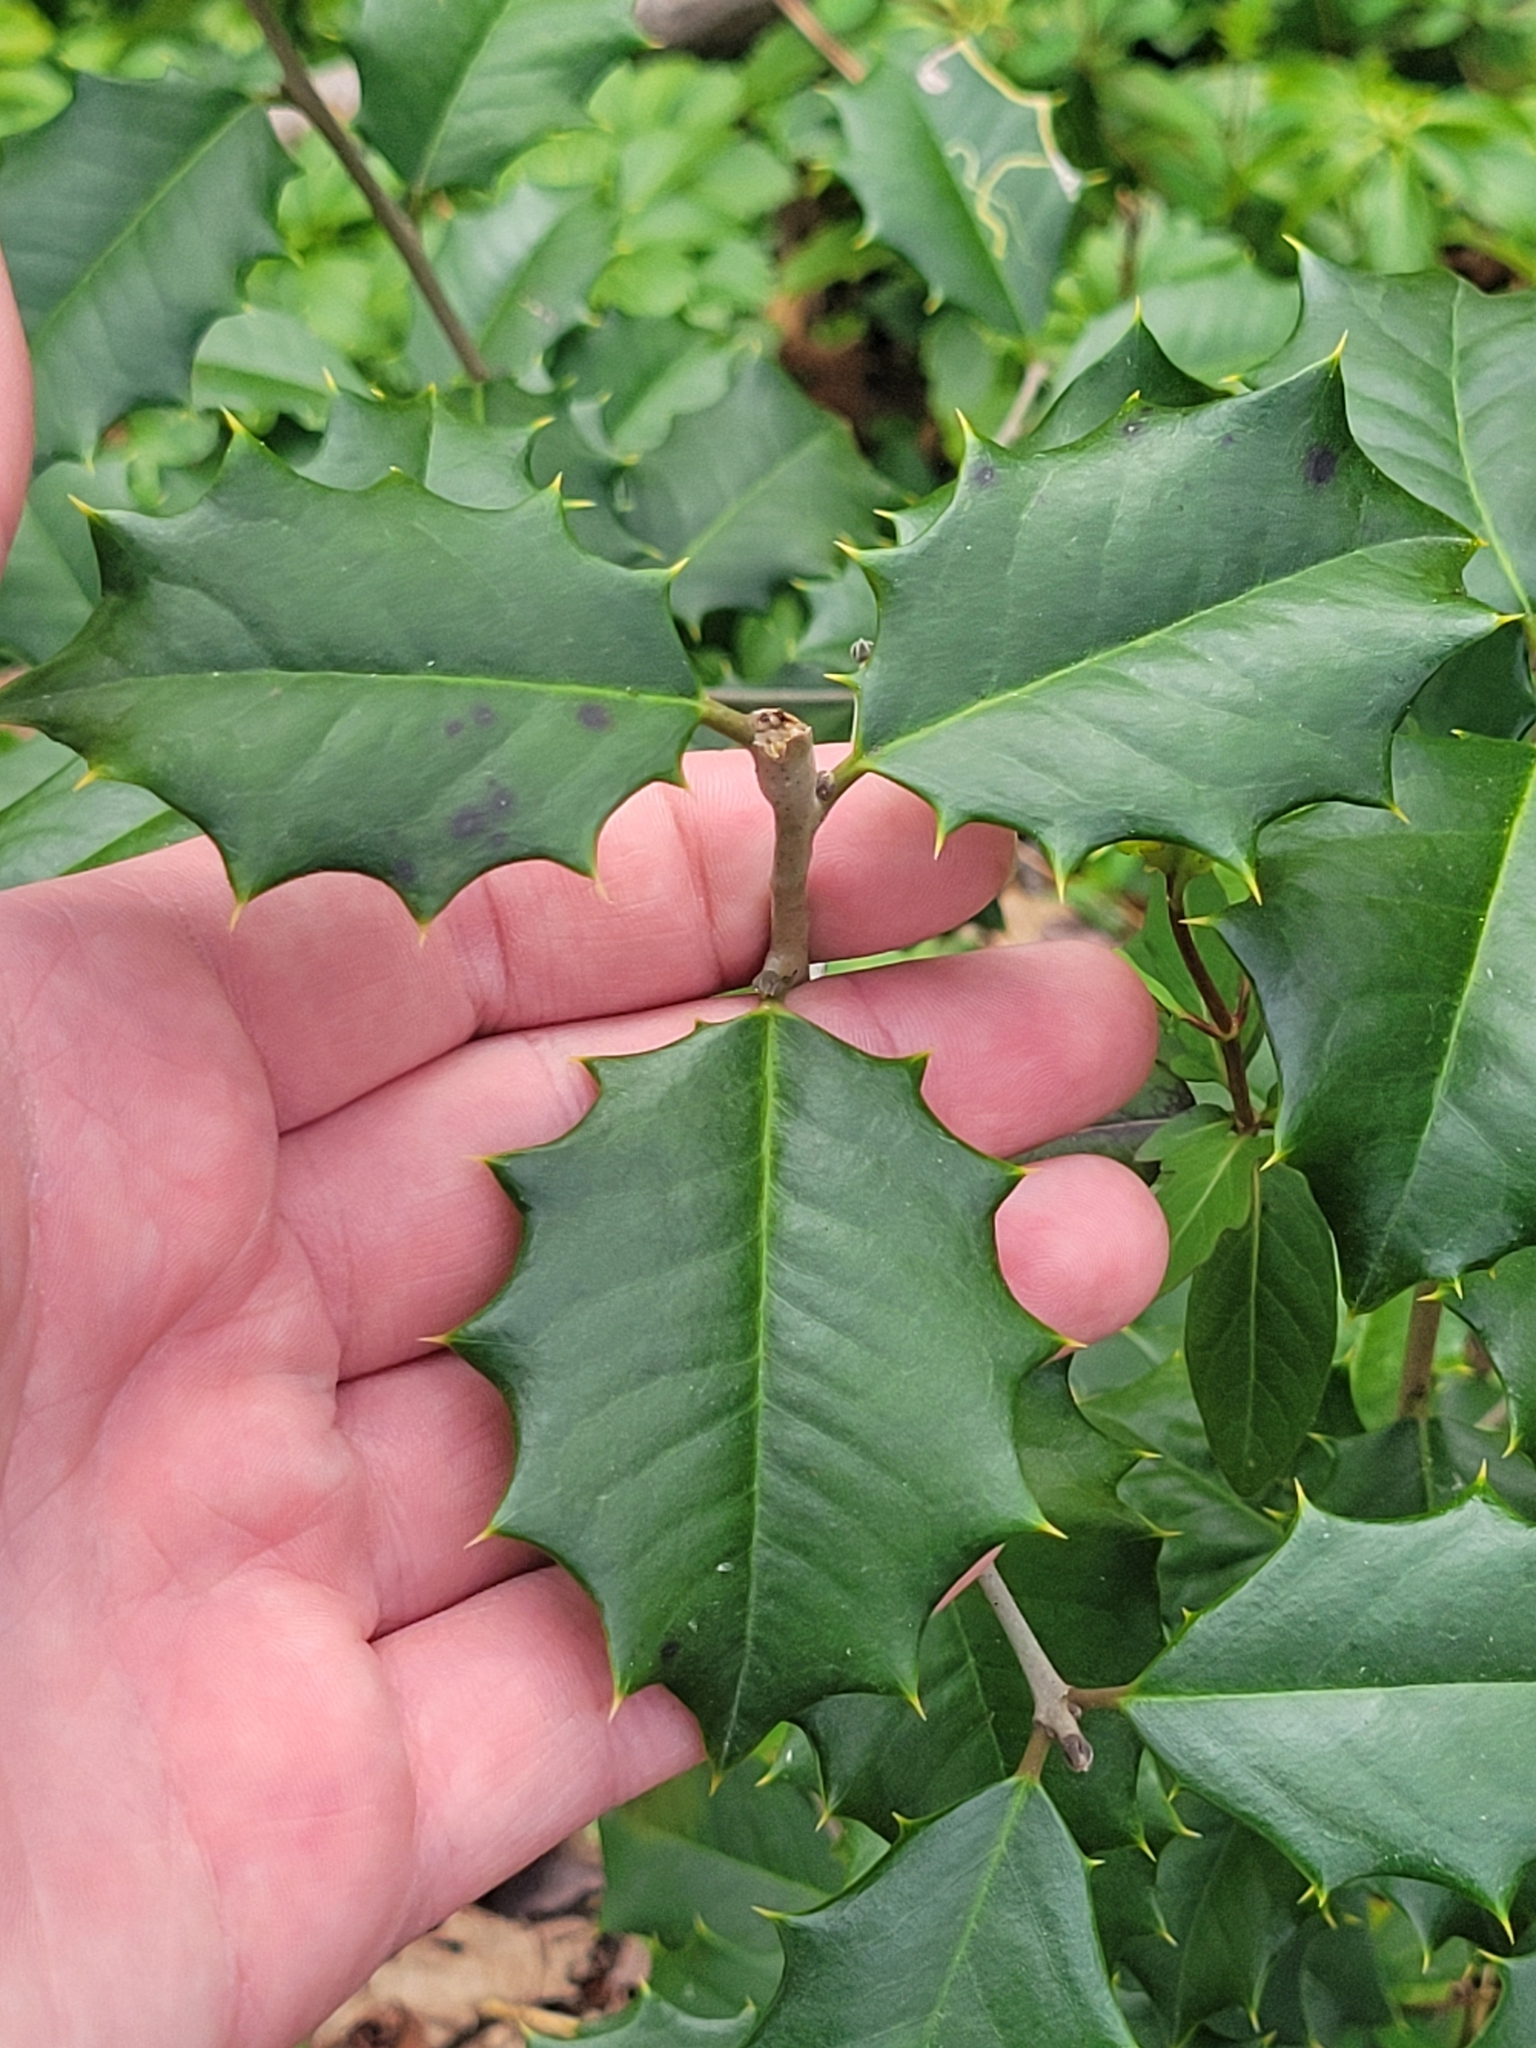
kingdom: Plantae
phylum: Tracheophyta
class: Magnoliopsida
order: Aquifoliales
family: Aquifoliaceae
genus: Ilex
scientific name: Ilex opaca
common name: American holly
